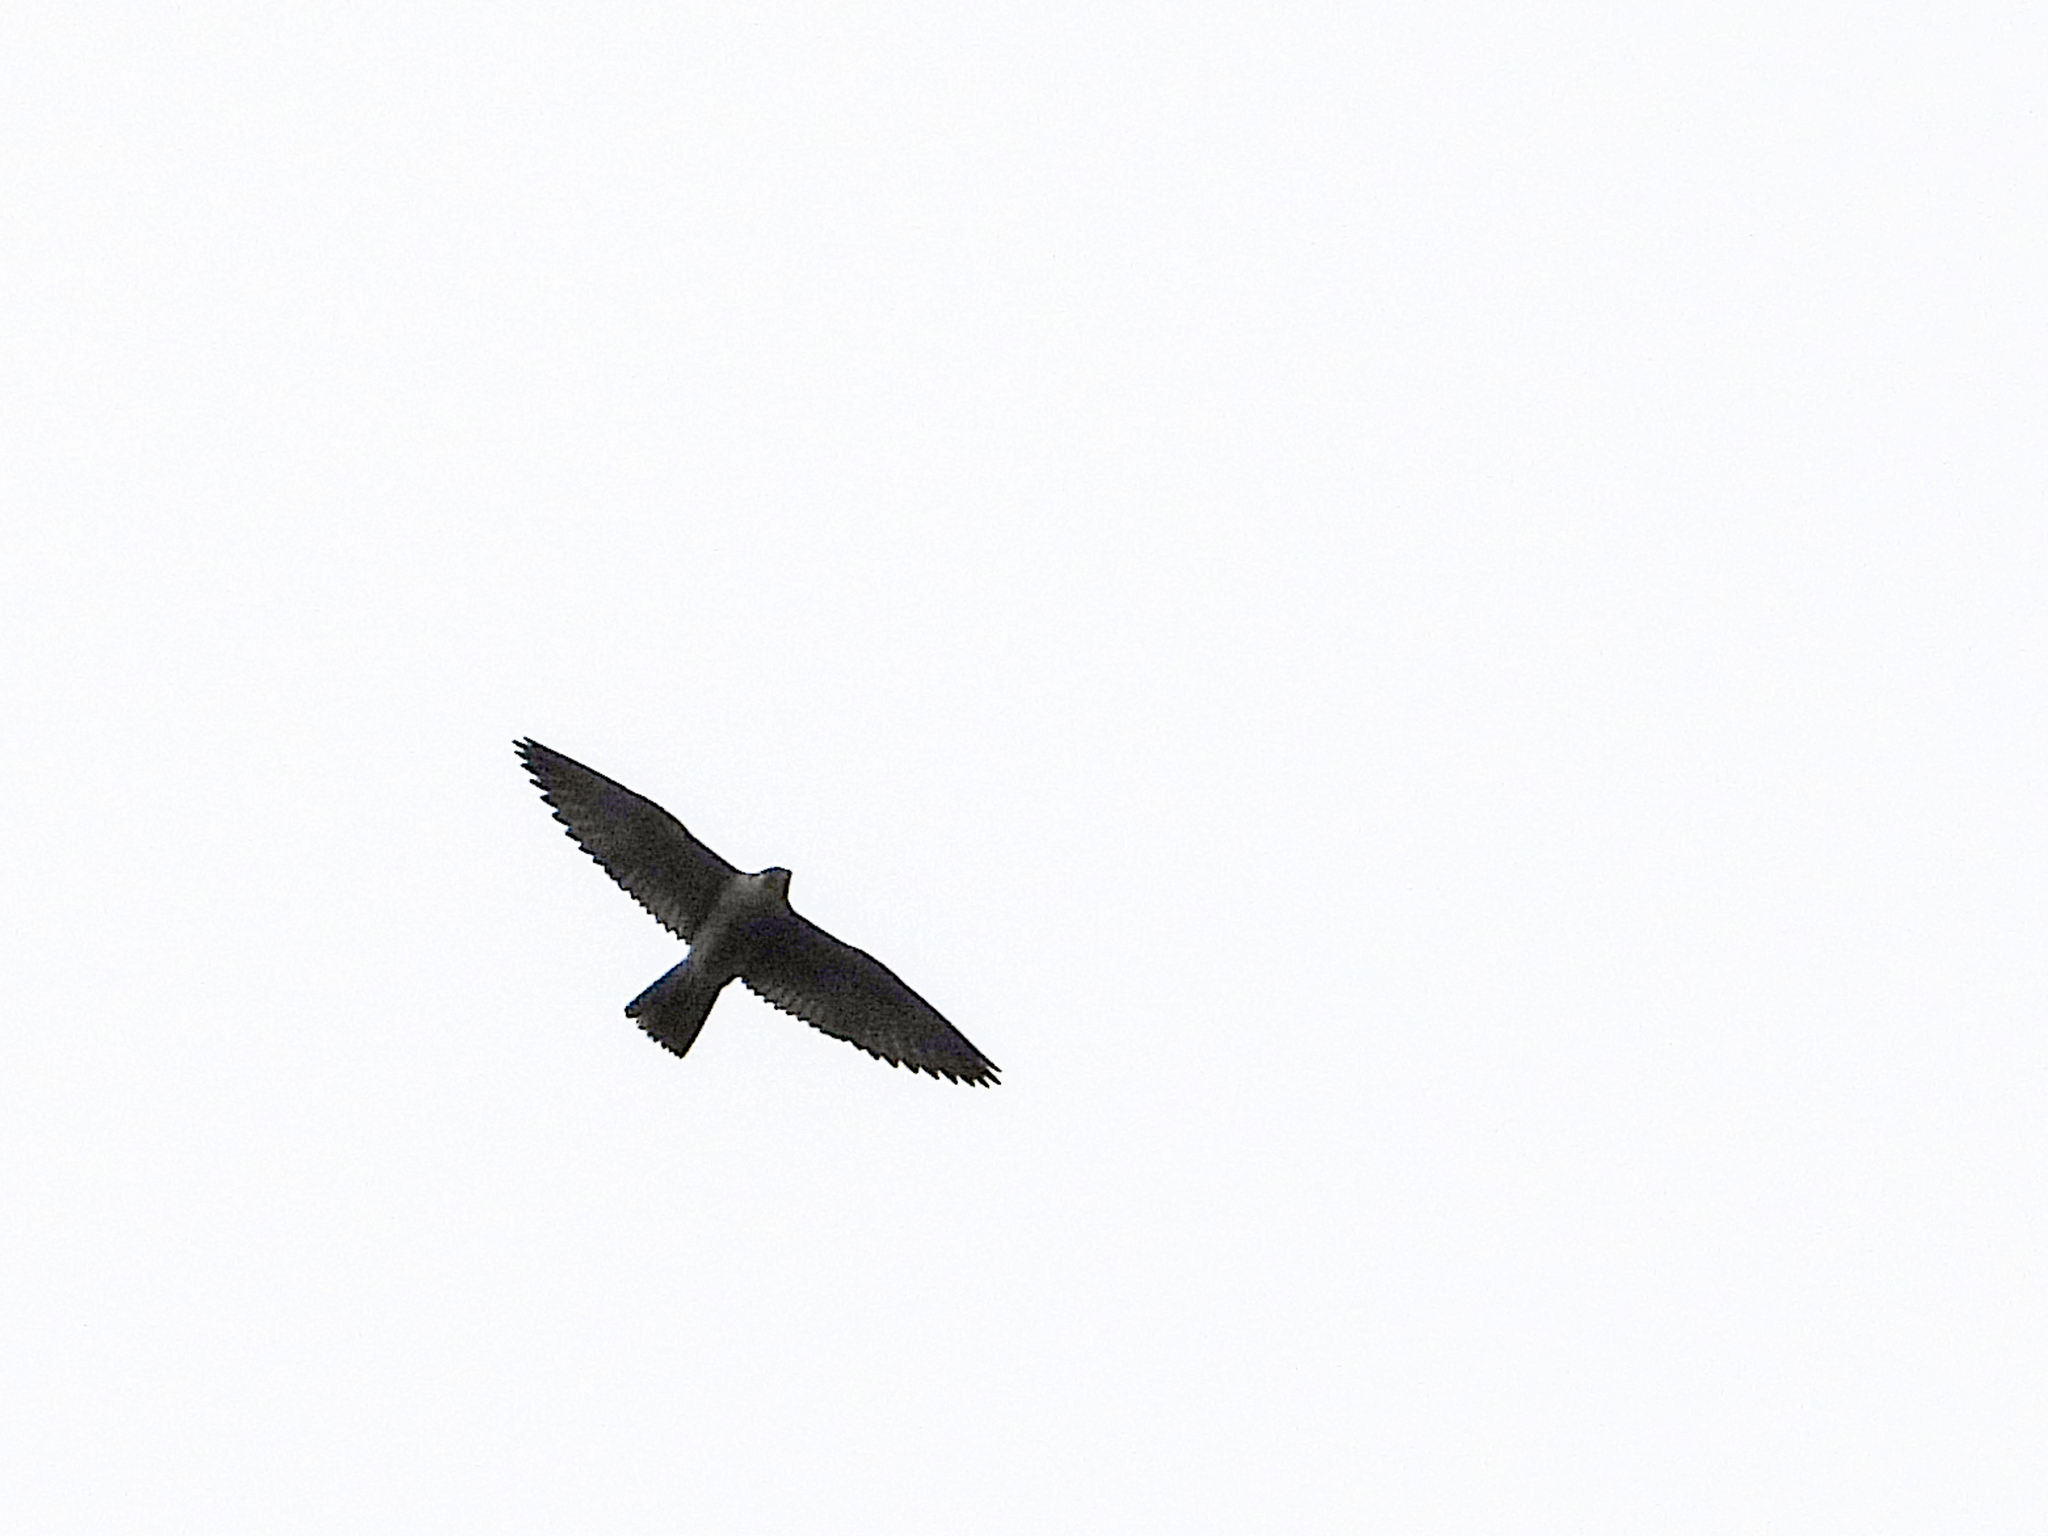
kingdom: Animalia
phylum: Chordata
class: Aves
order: Falconiformes
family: Falconidae
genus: Falco
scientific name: Falco peregrinus
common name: Peregrine falcon
